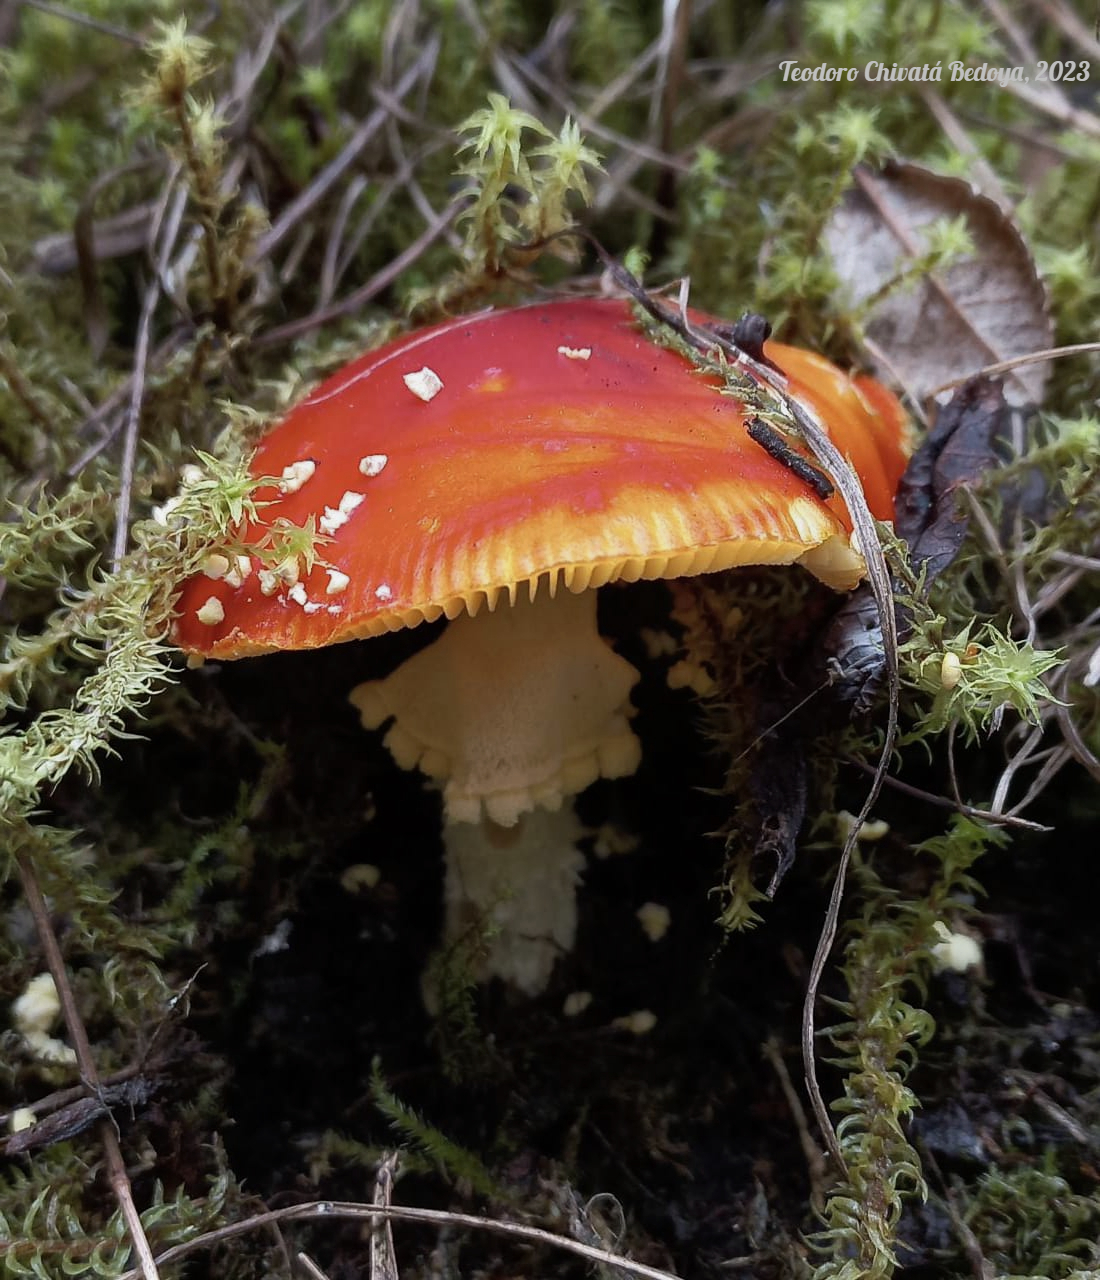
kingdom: Fungi
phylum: Basidiomycota
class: Agaricomycetes
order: Agaricales
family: Amanitaceae
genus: Amanita
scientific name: Amanita muscaria
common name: Fly agaric
